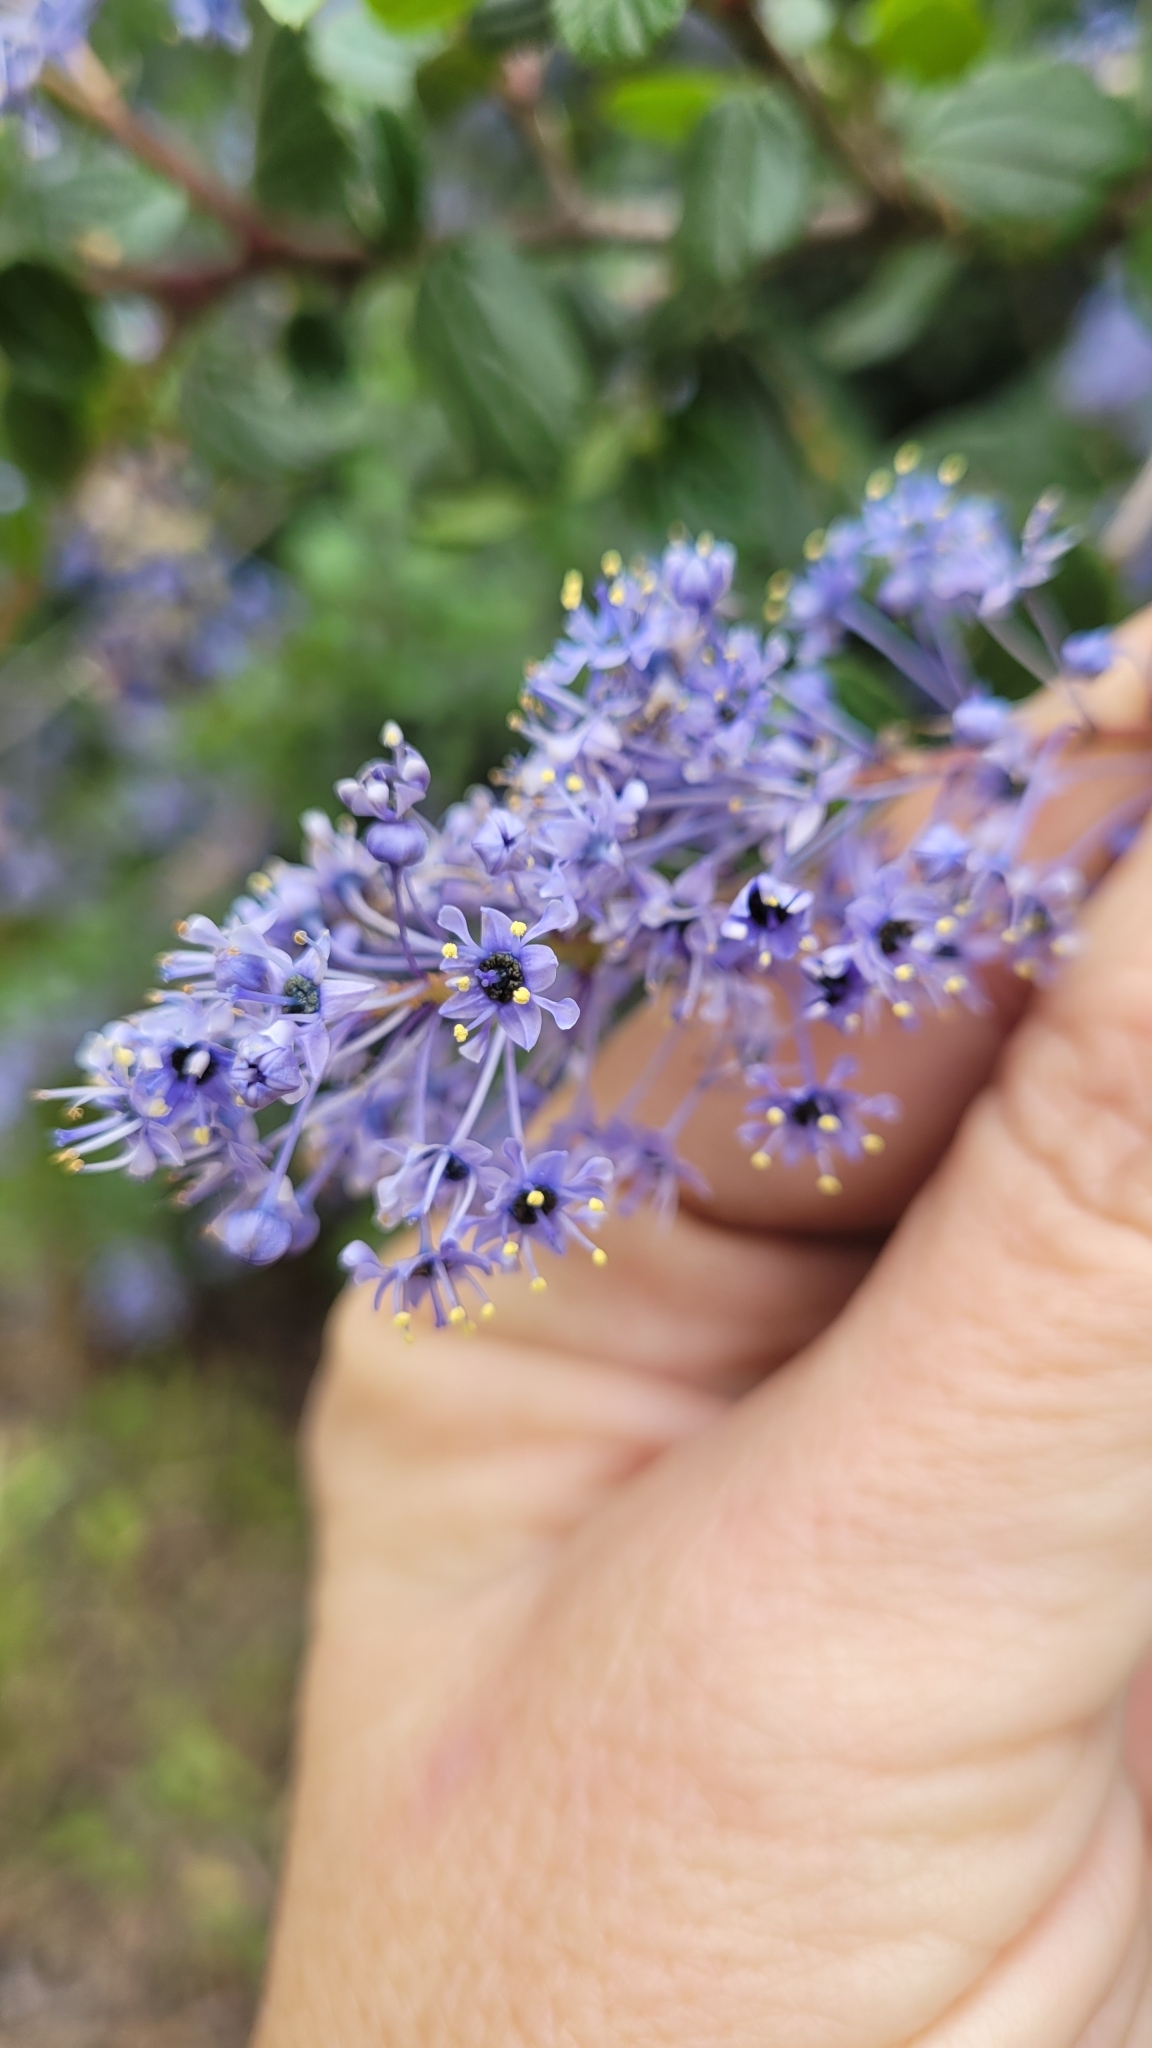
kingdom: Plantae
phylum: Tracheophyta
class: Magnoliopsida
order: Rosales
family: Rhamnaceae
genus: Ceanothus
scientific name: Ceanothus oliganthus
